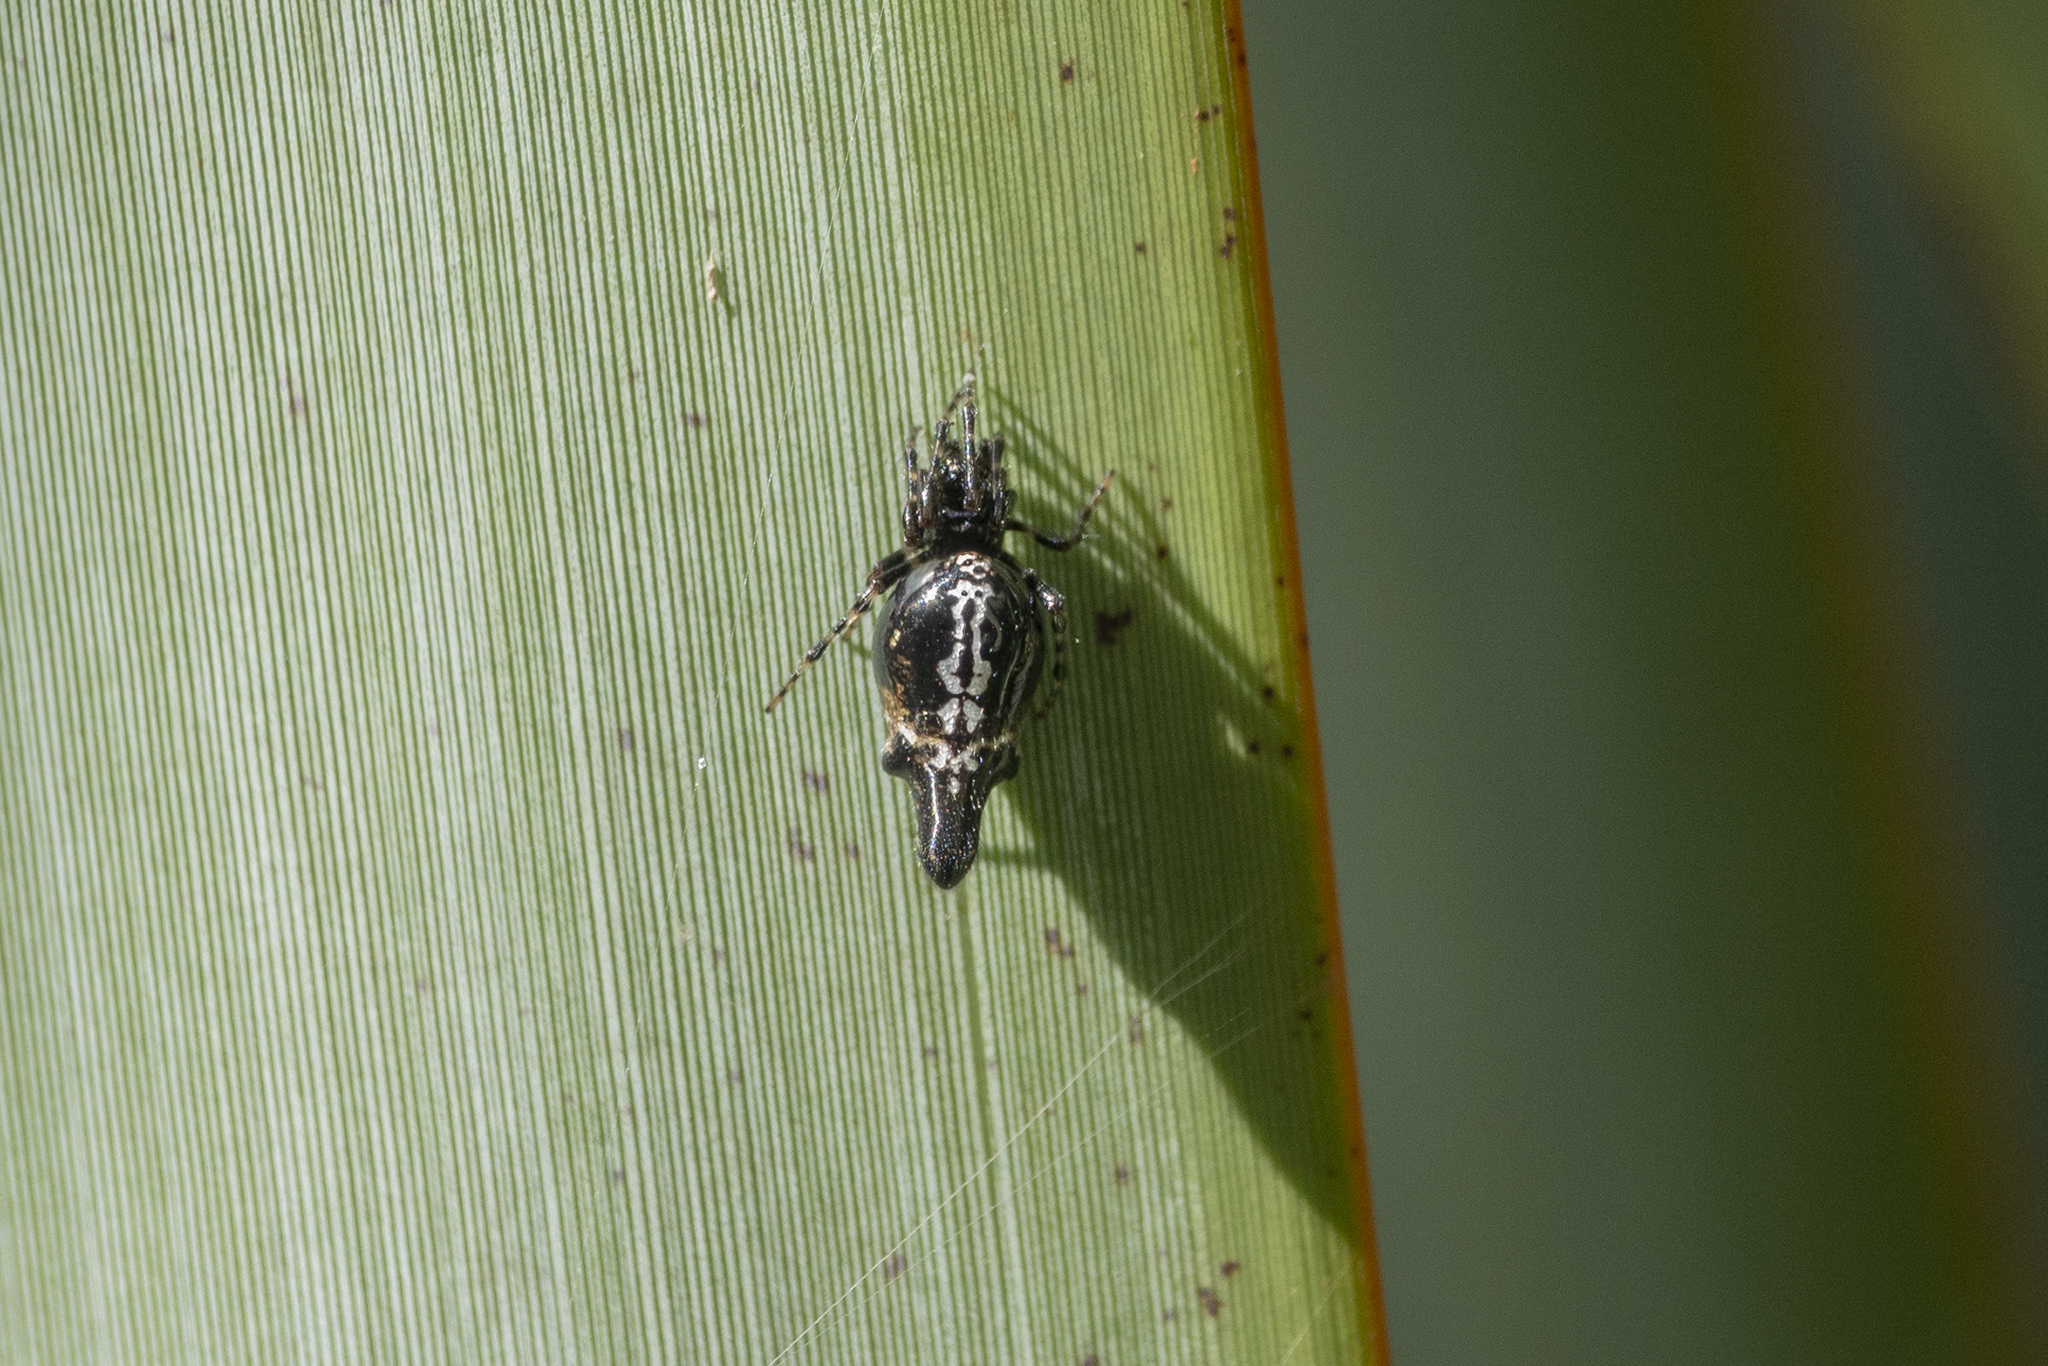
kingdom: Animalia
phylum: Arthropoda
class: Arachnida
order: Araneae
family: Araneidae
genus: Cyclosa
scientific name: Cyclosa trilobata
